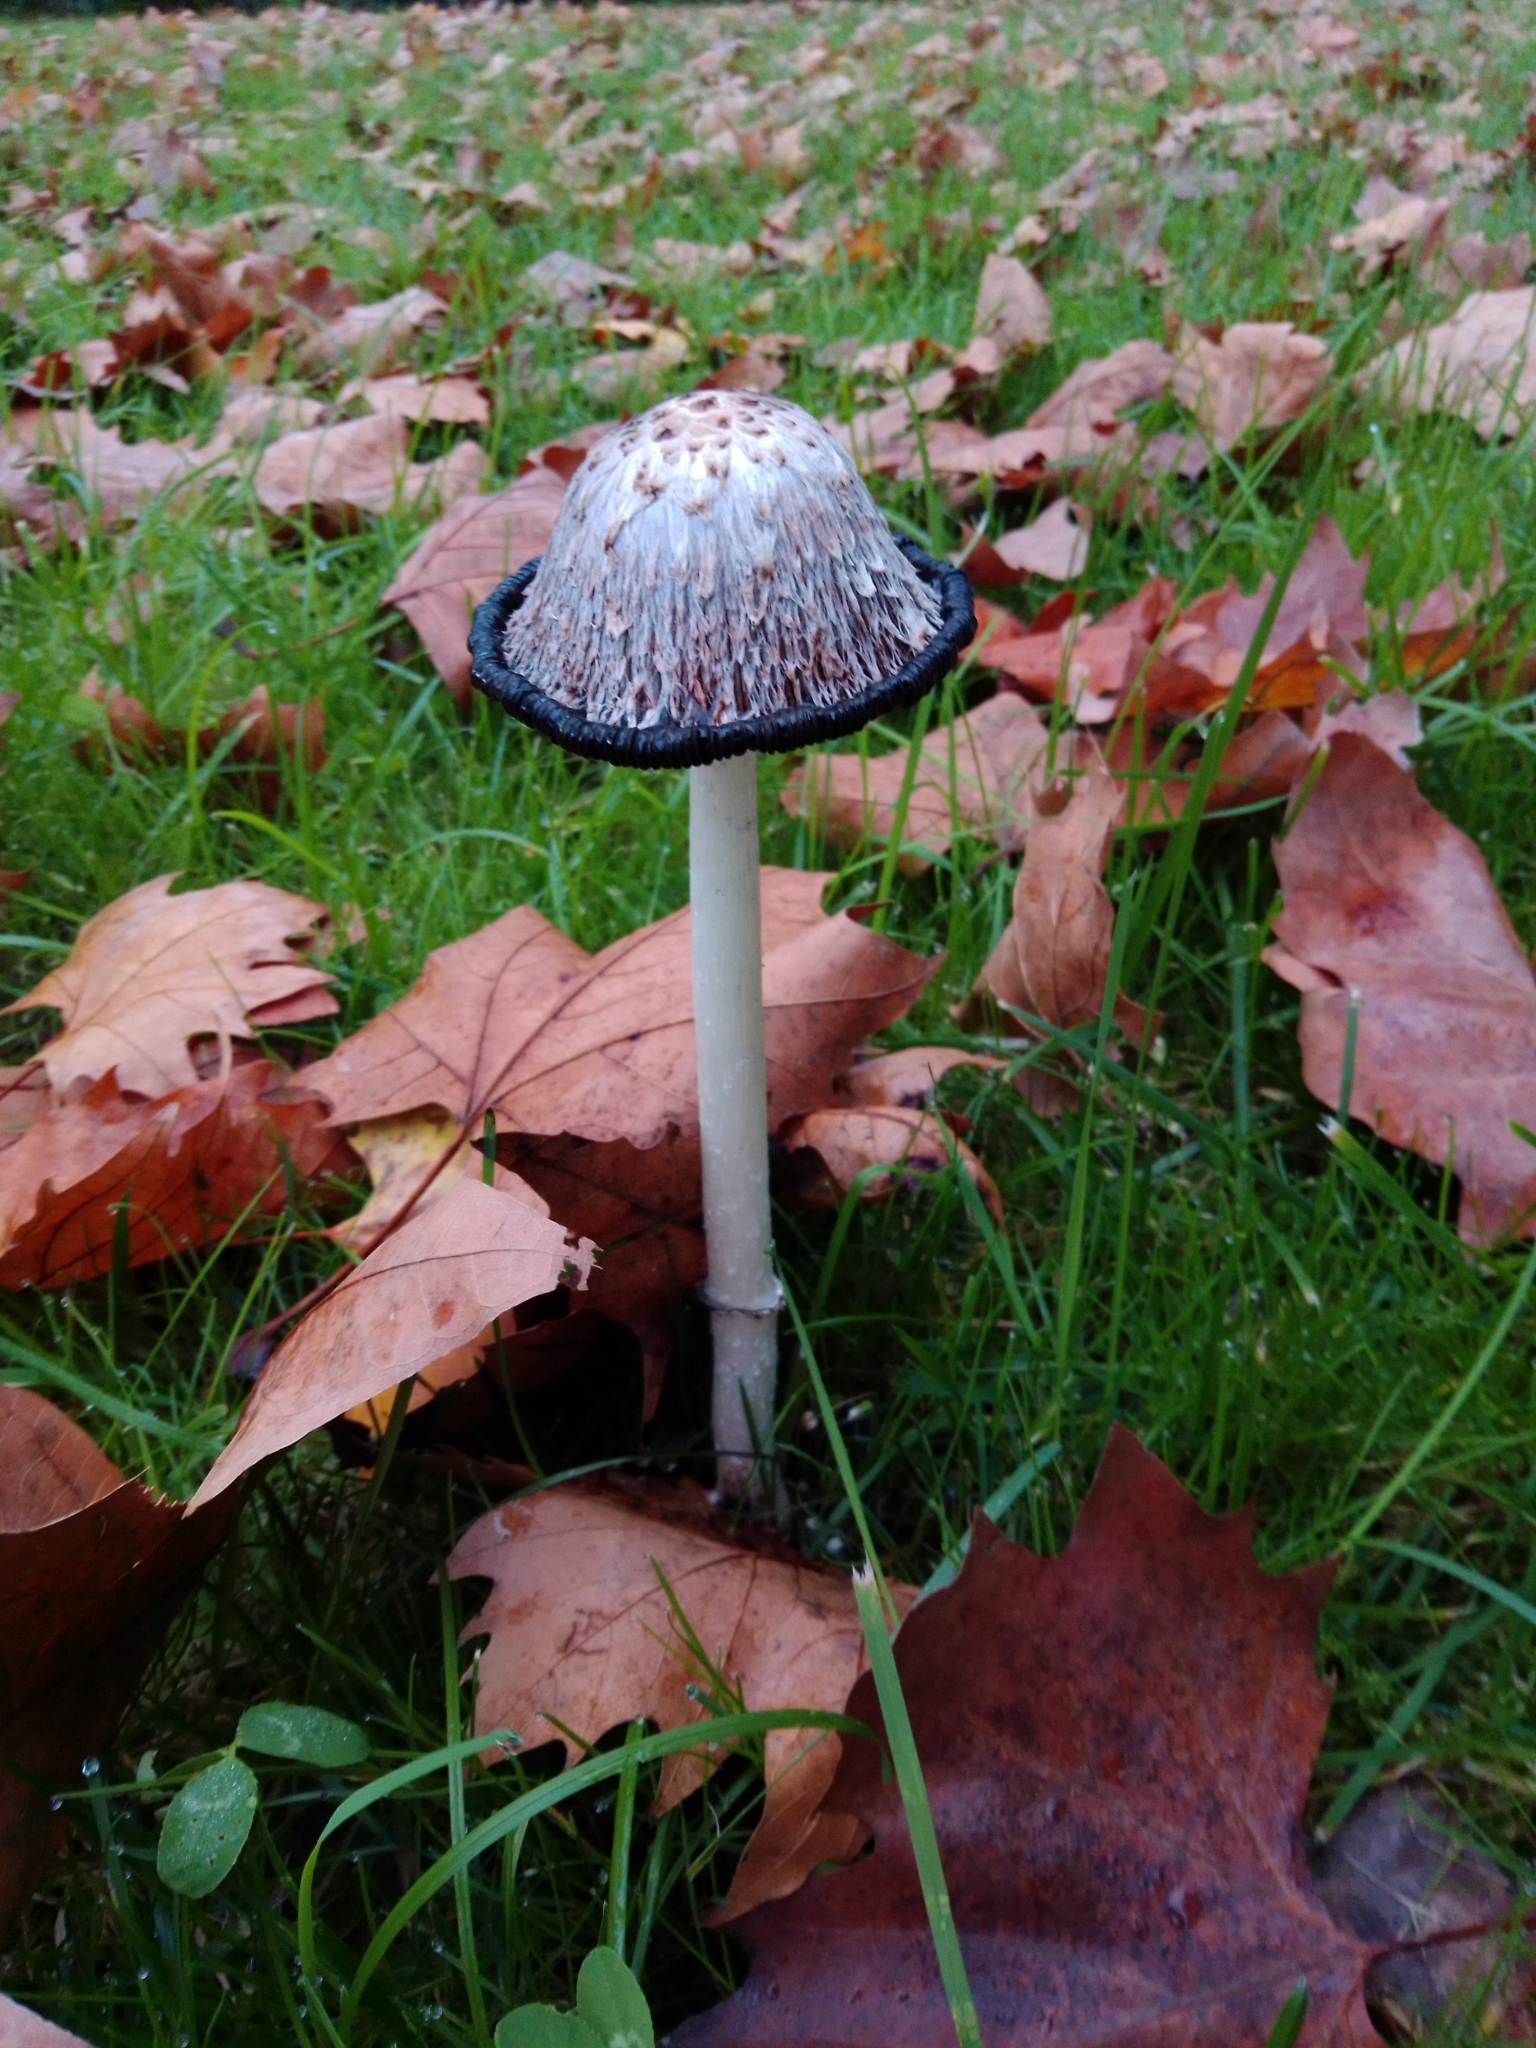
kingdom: Fungi
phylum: Basidiomycota
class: Agaricomycetes
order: Agaricales
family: Agaricaceae
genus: Coprinus
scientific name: Coprinus comatus
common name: Lawyer's wig
